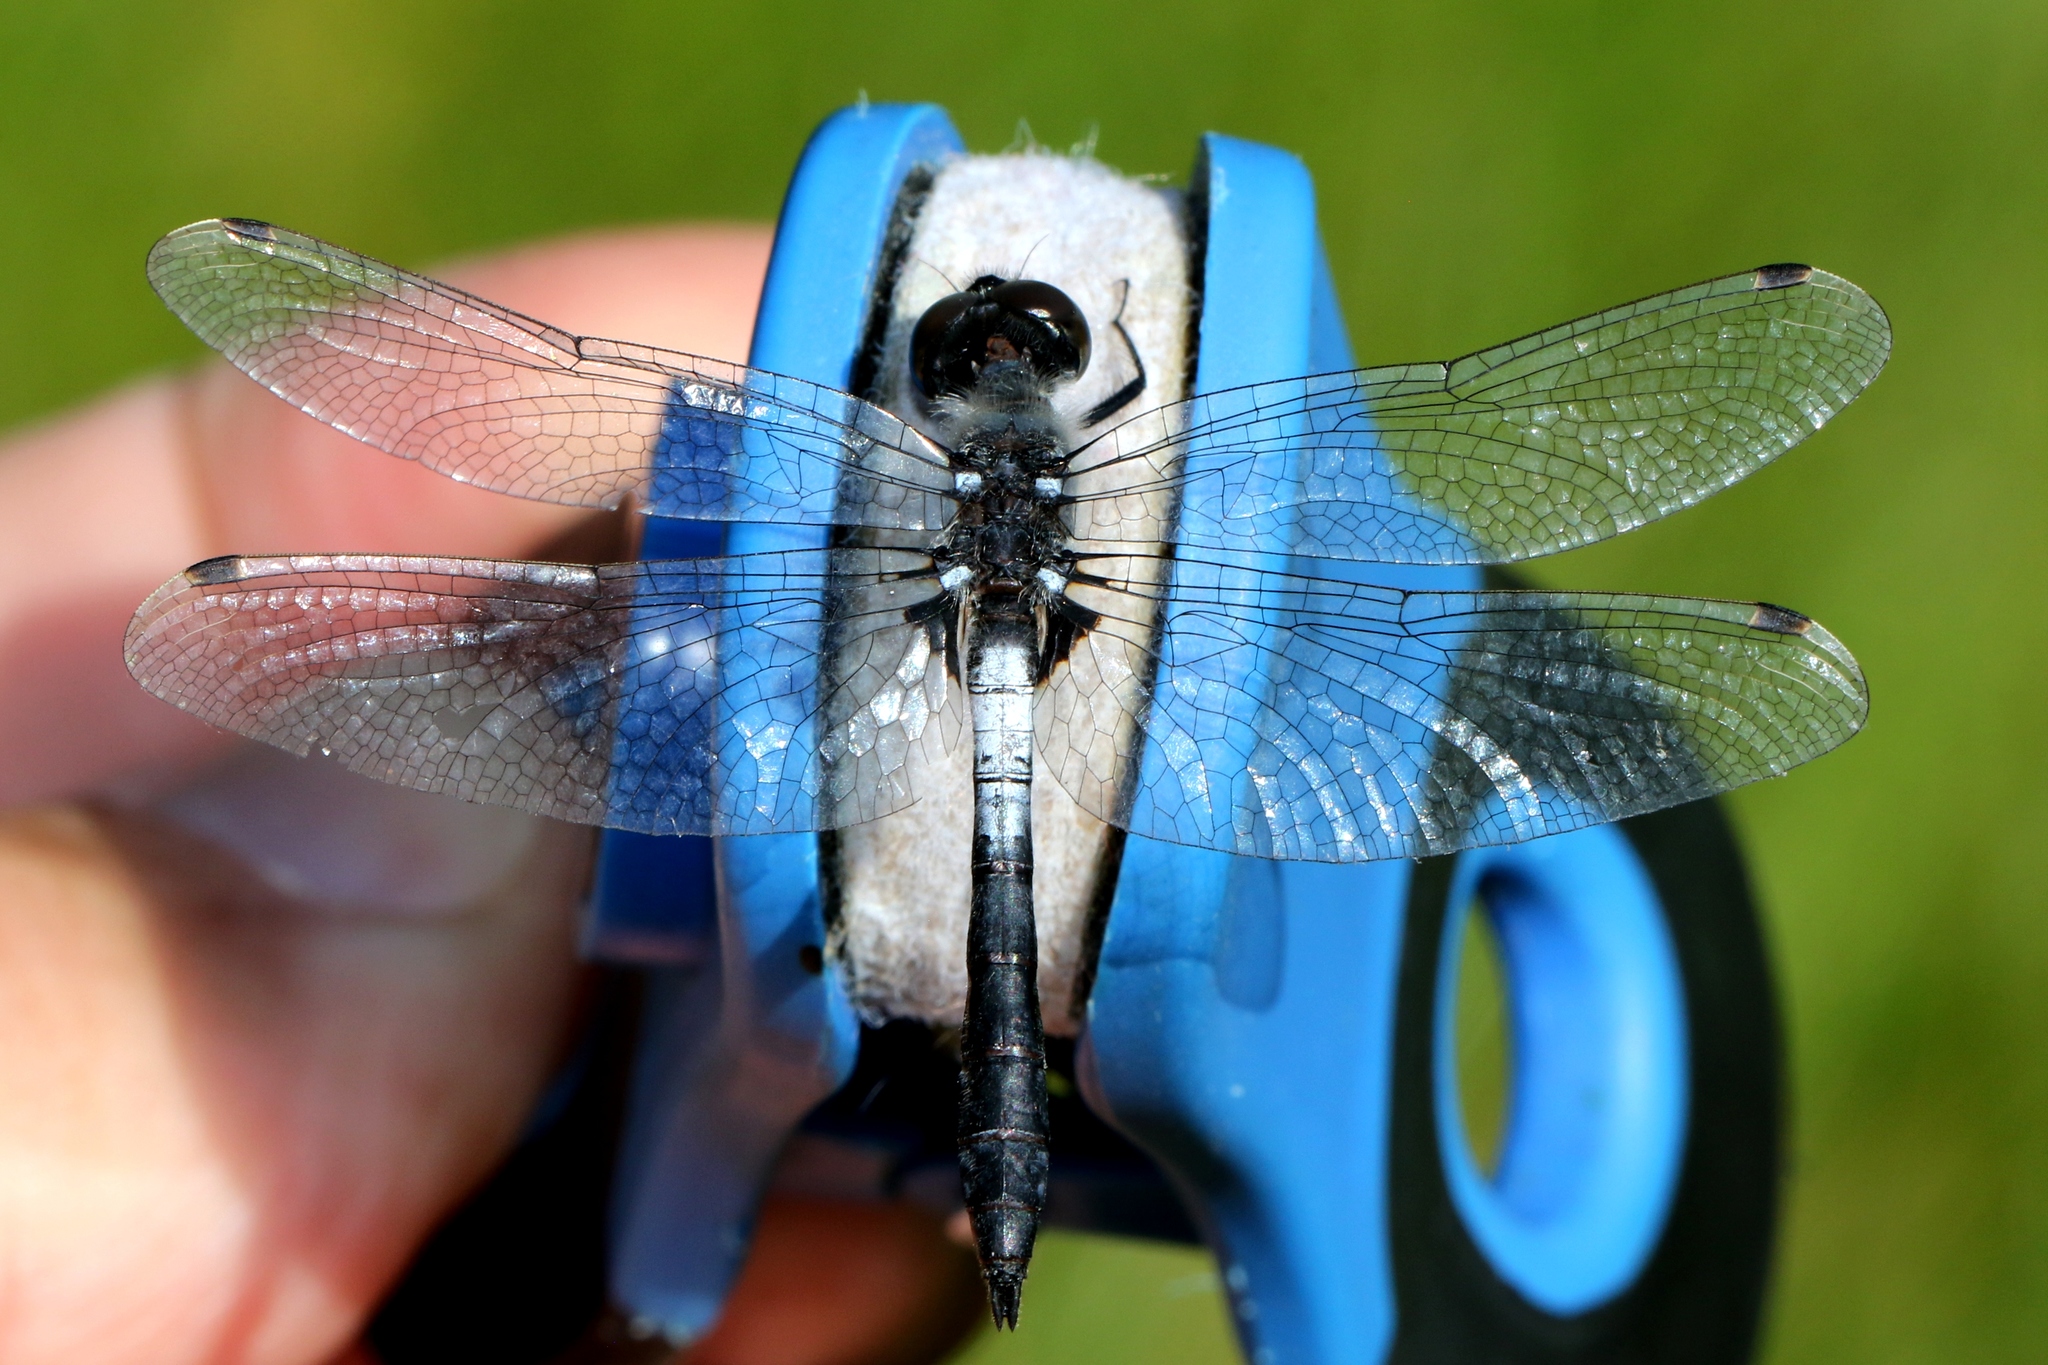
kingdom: Animalia
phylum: Arthropoda
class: Insecta
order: Odonata
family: Libellulidae
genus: Leucorrhinia
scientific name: Leucorrhinia frigida
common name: Frosted whiteface
